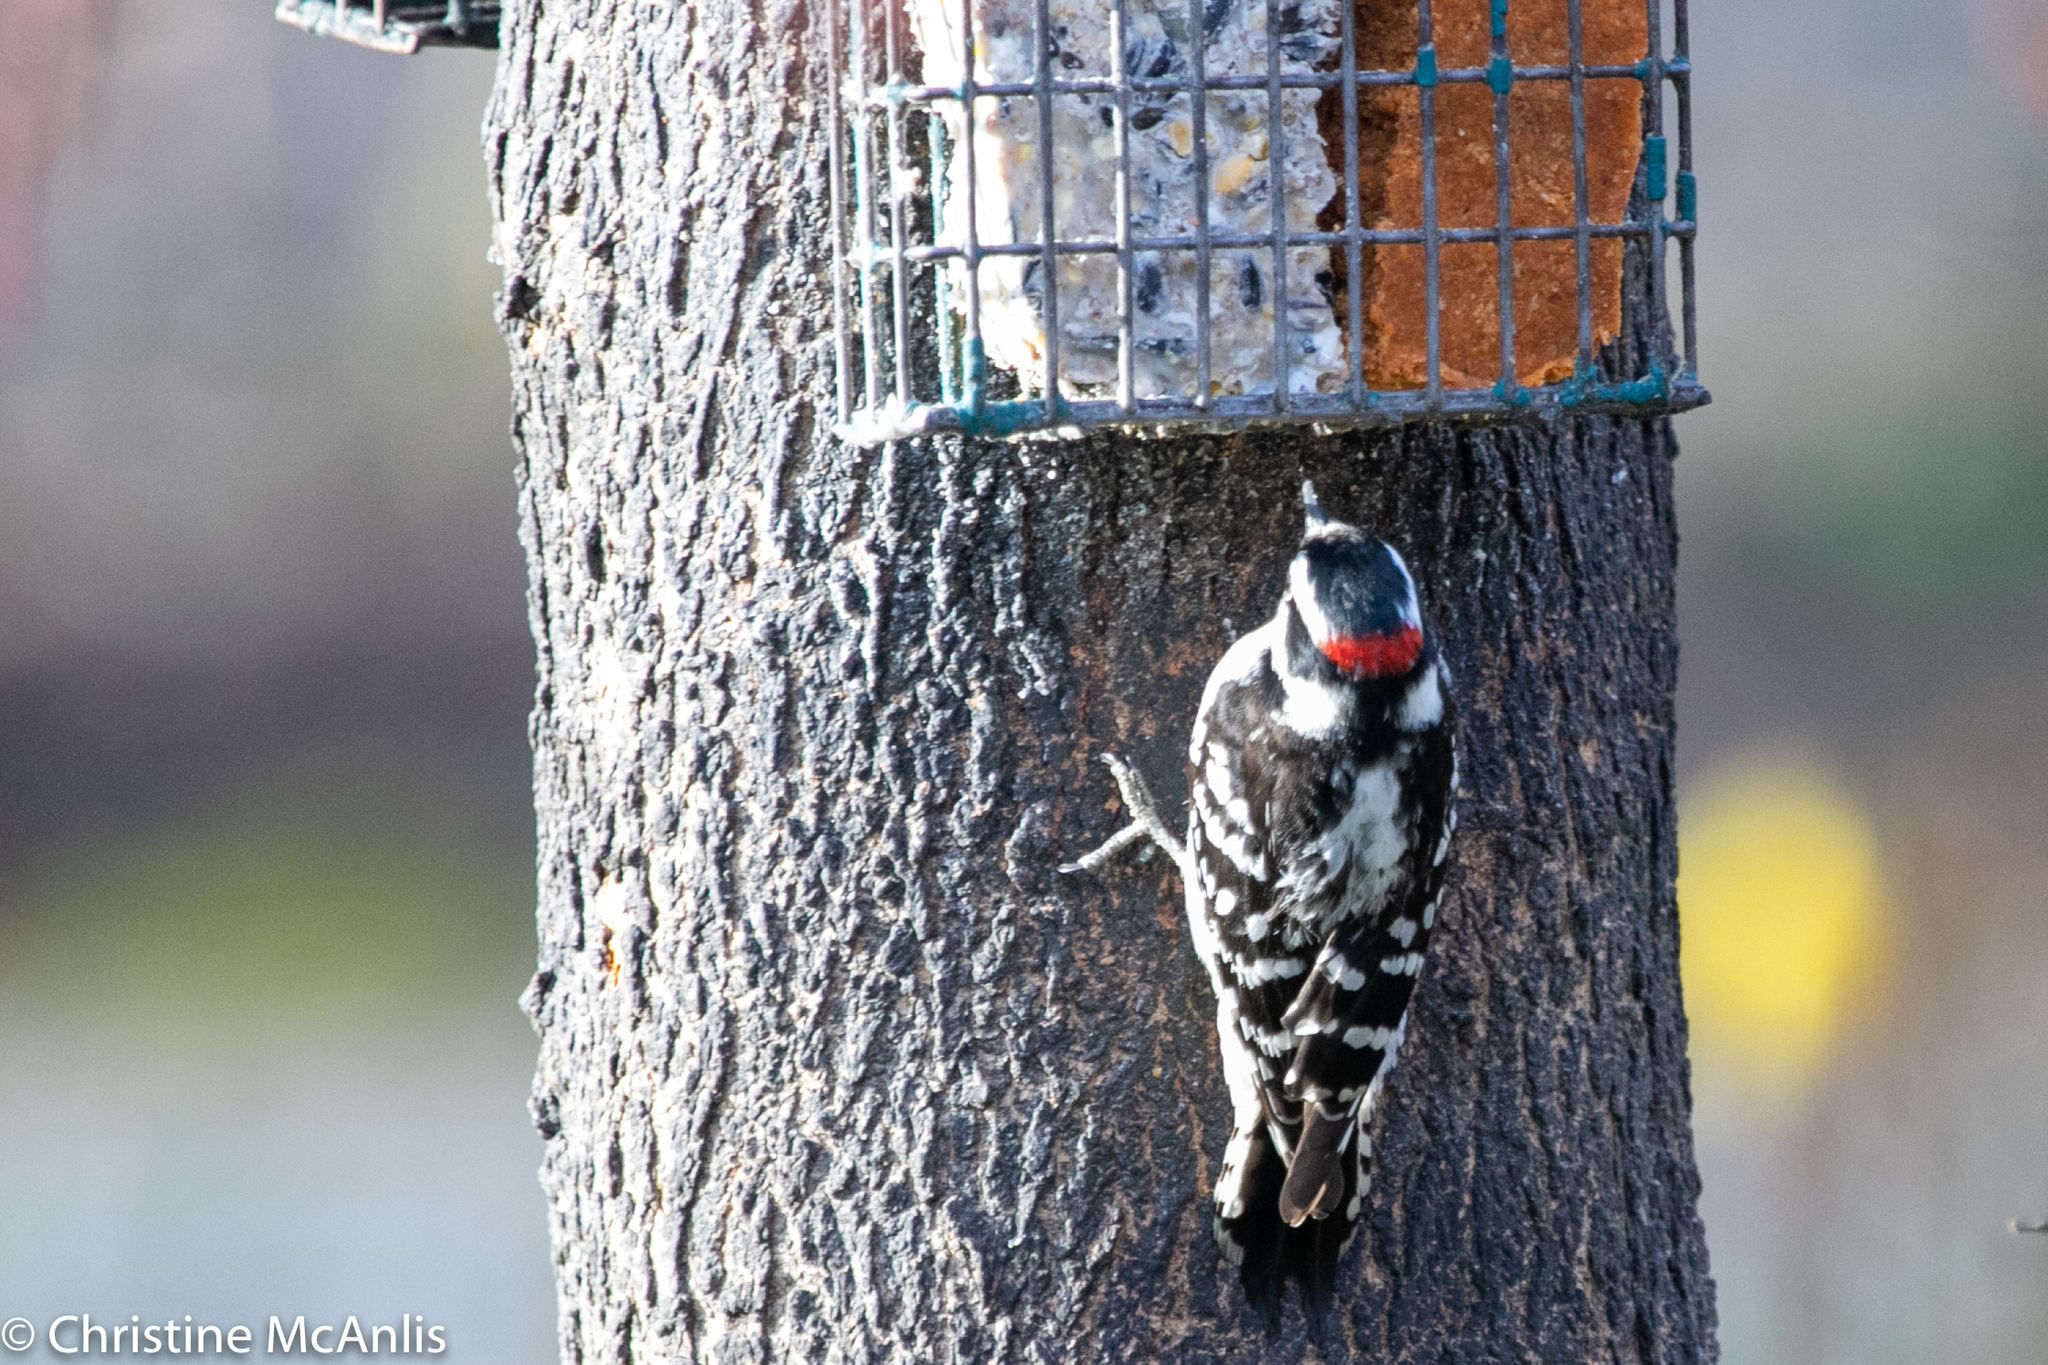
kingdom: Animalia
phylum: Chordata
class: Aves
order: Piciformes
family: Picidae
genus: Dryobates
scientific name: Dryobates pubescens
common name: Downy woodpecker
